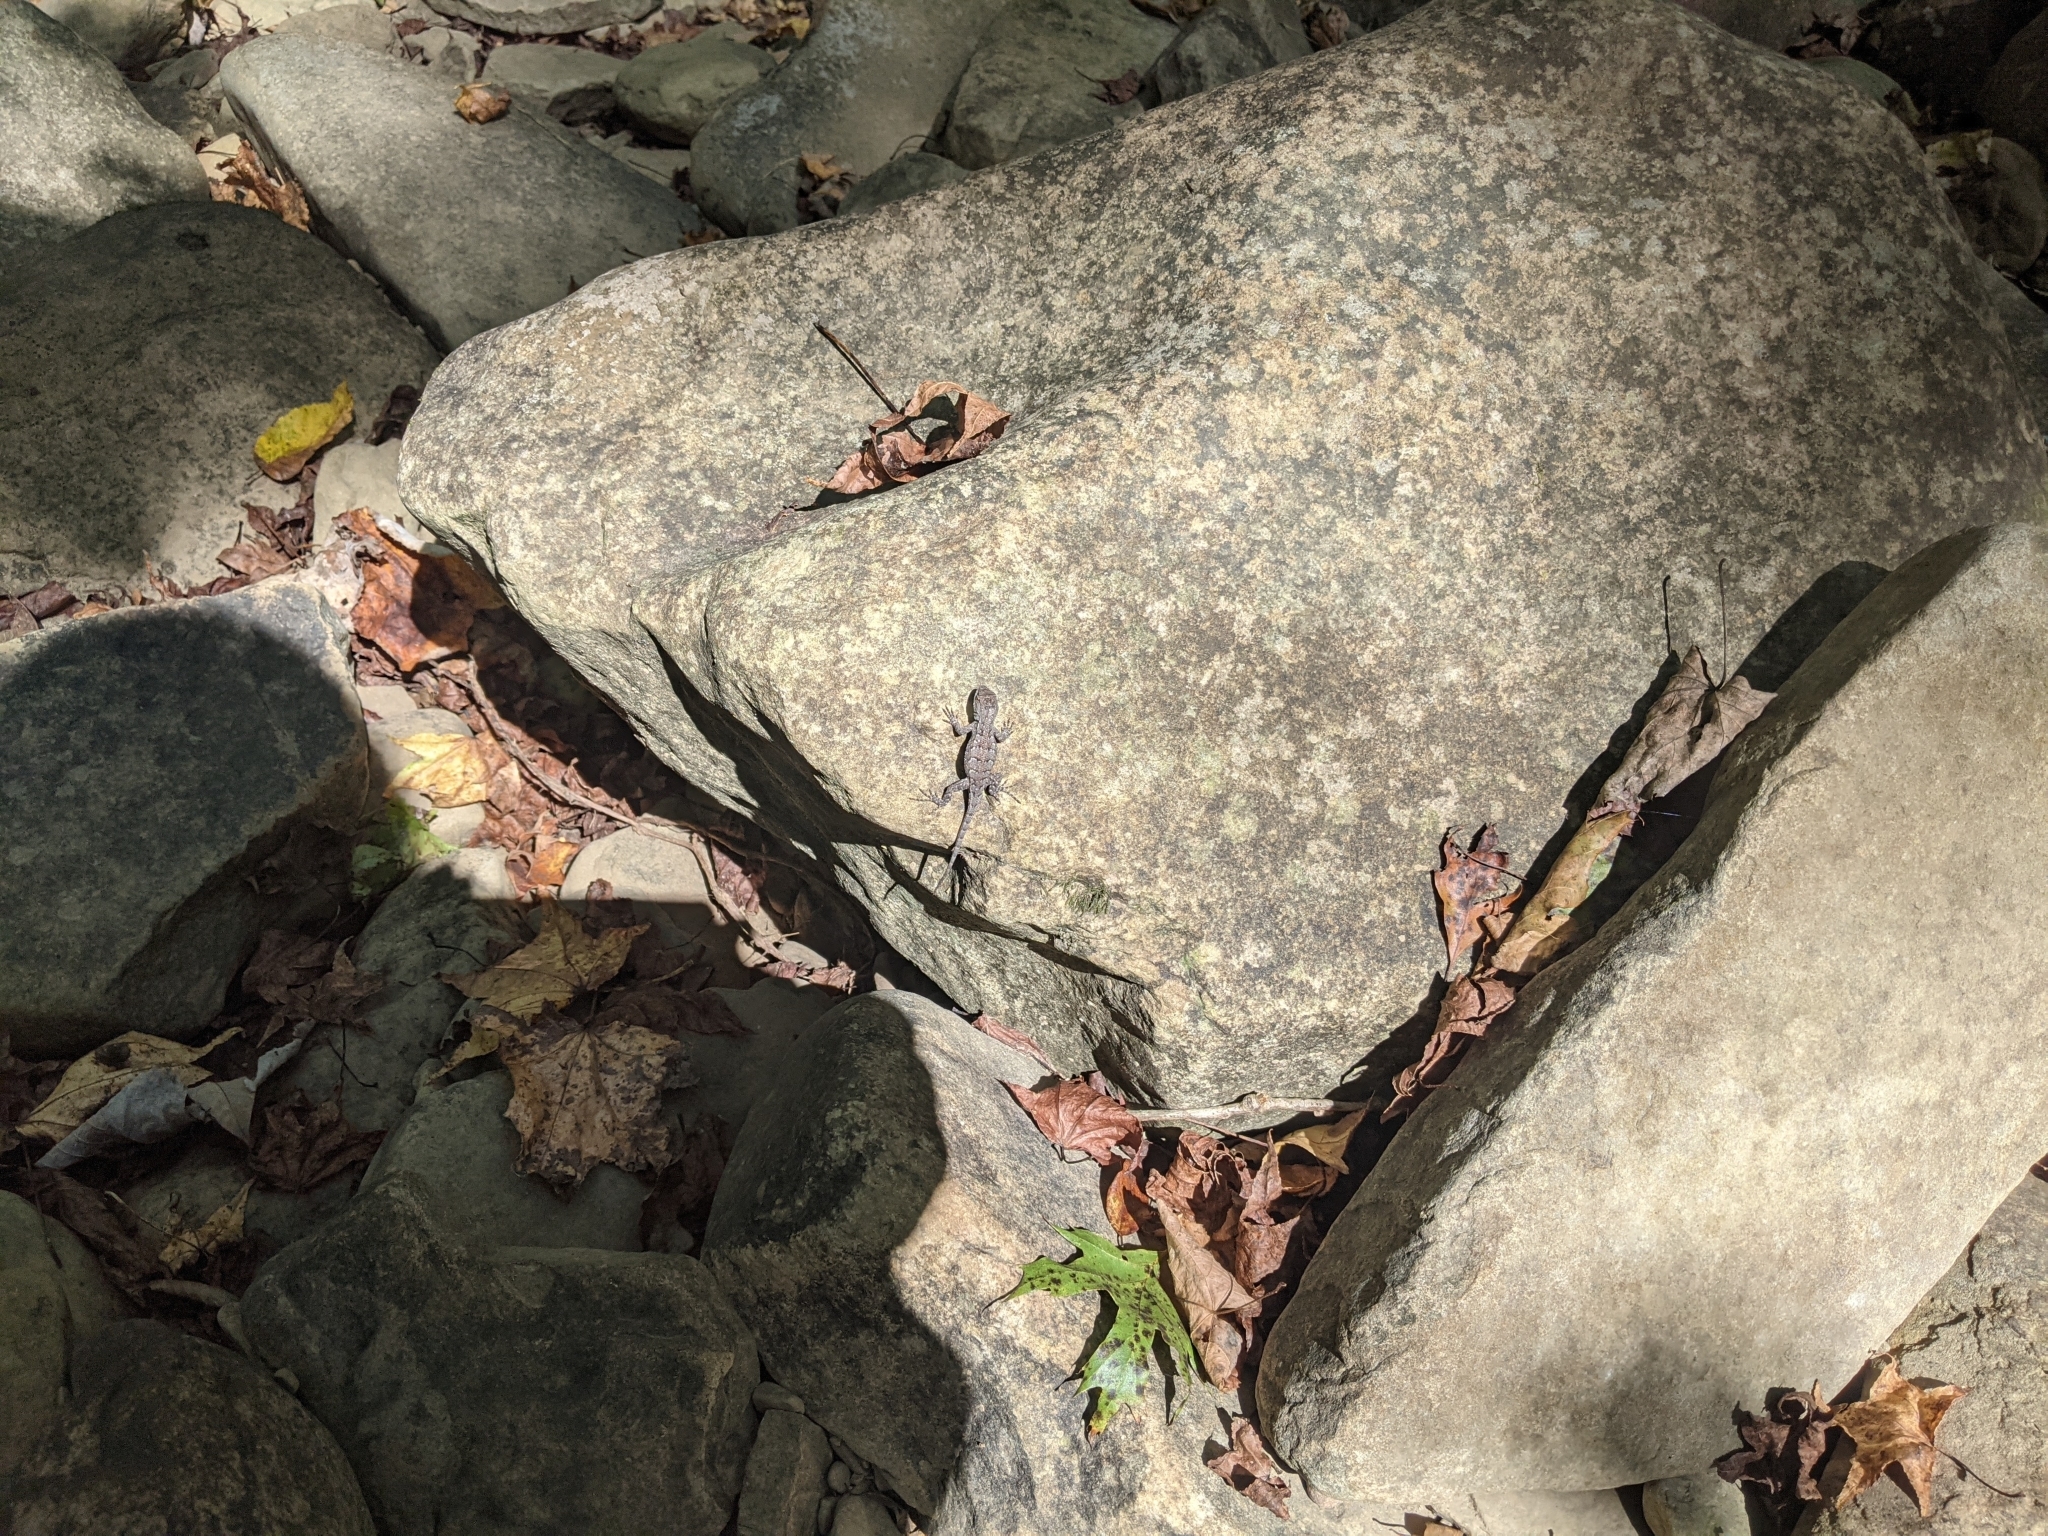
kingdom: Animalia
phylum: Chordata
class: Squamata
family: Phrynosomatidae
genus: Sceloporus
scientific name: Sceloporus consobrinus
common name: Southern prairie lizard
